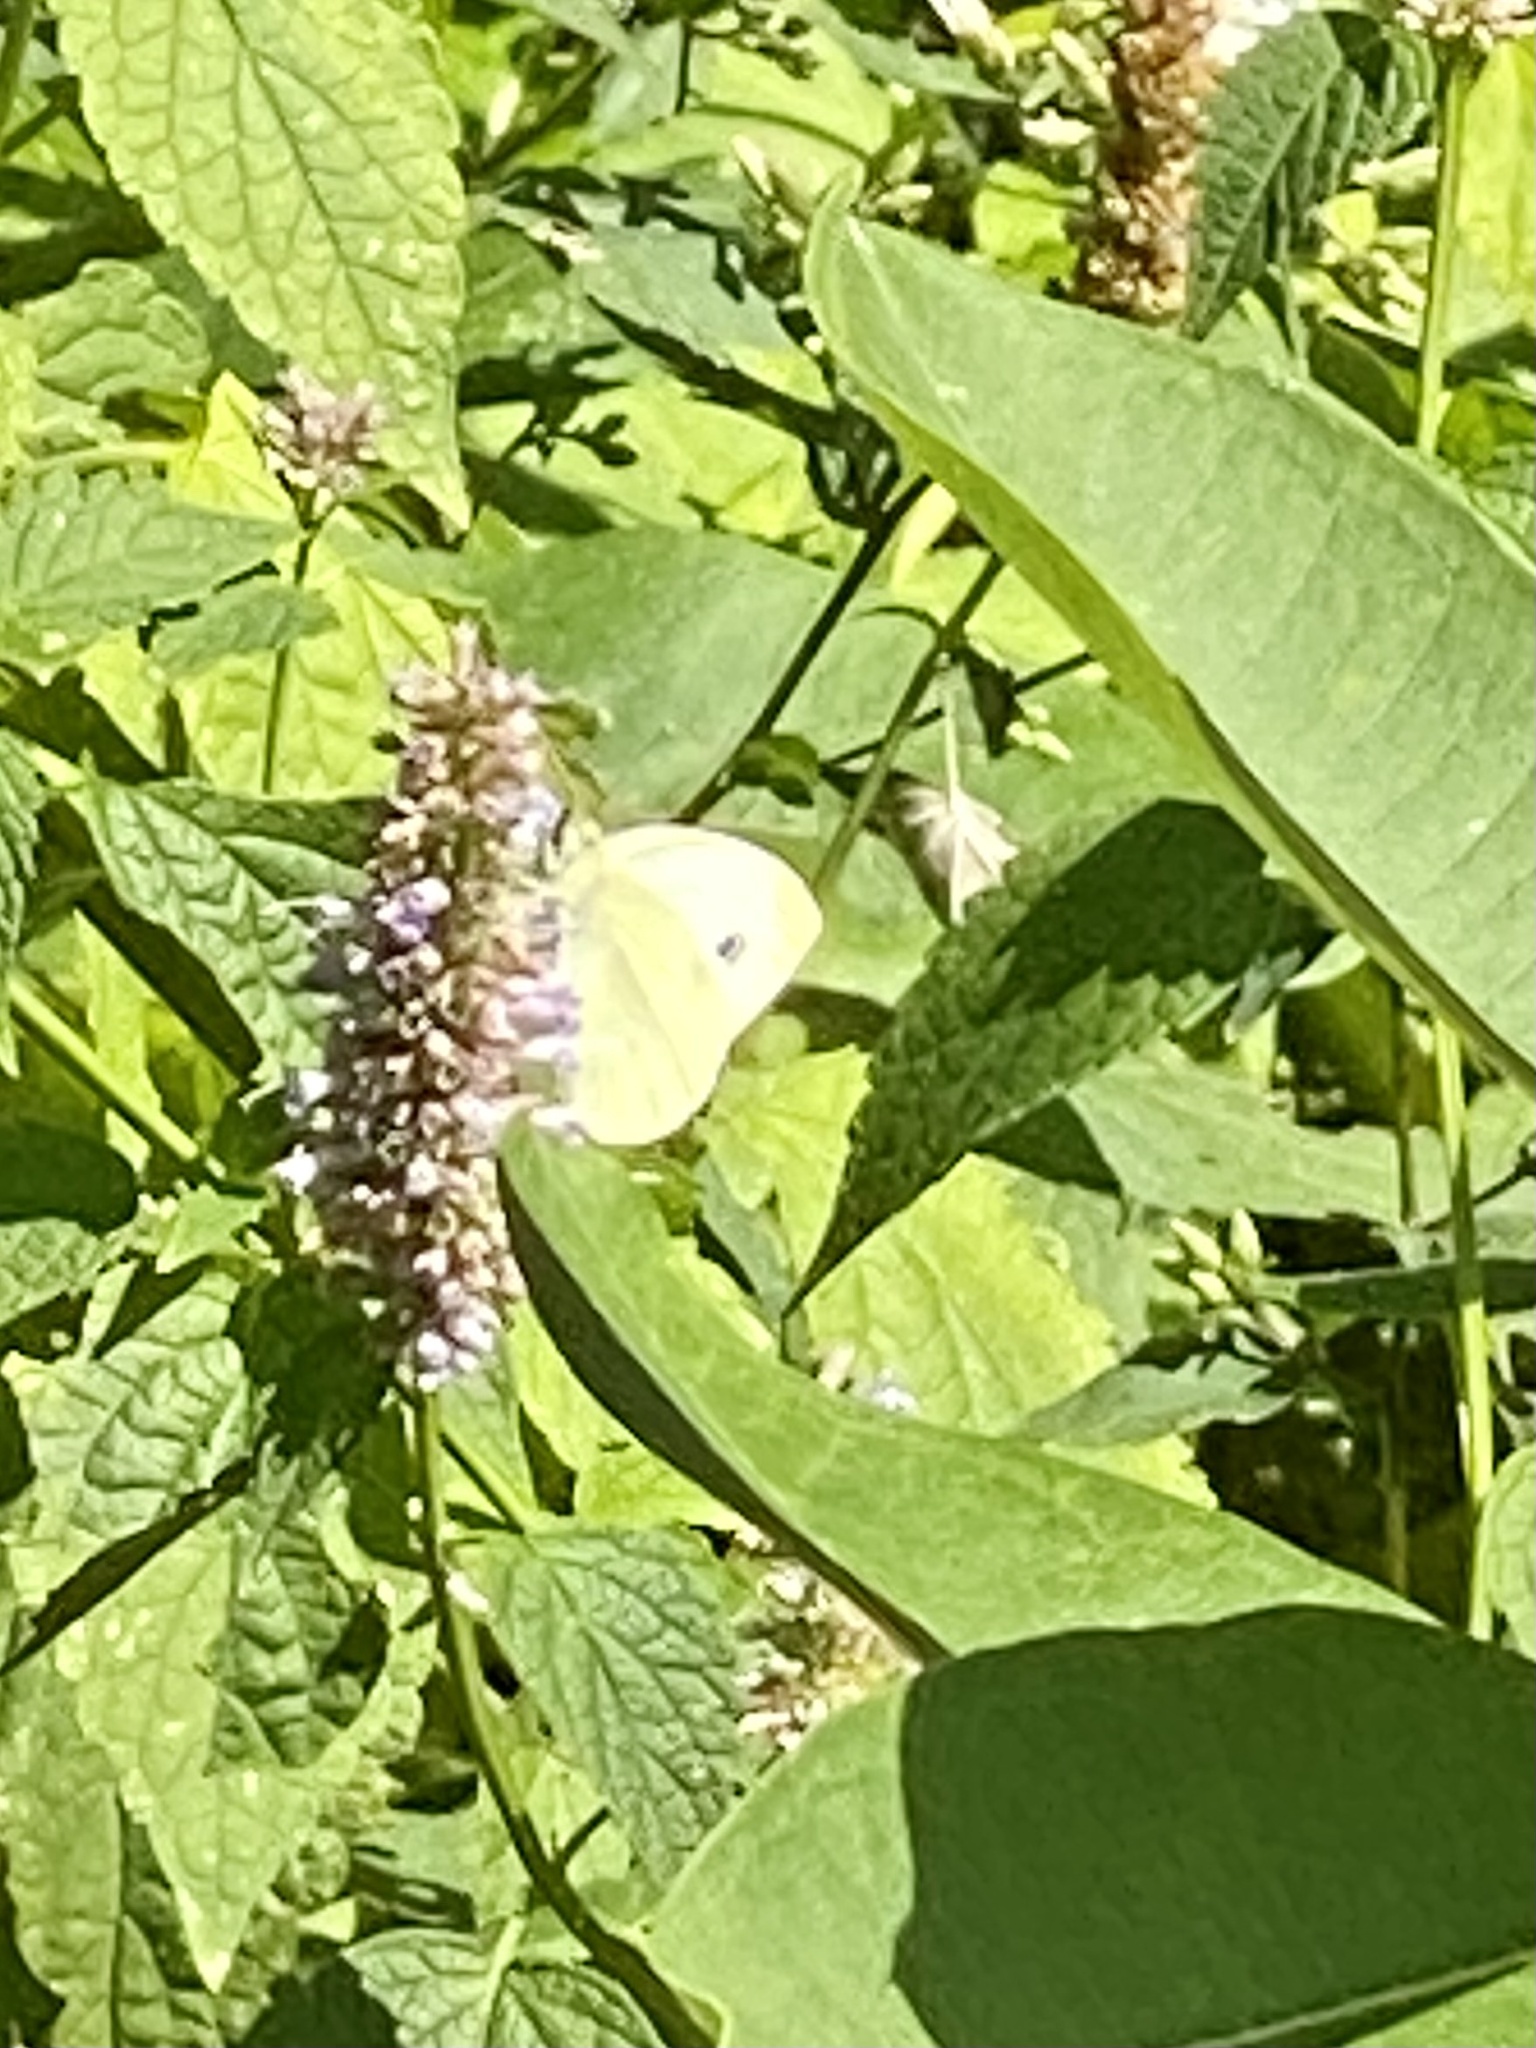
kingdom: Animalia
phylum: Arthropoda
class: Insecta
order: Lepidoptera
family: Pieridae
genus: Pieris
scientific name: Pieris rapae
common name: Small white
